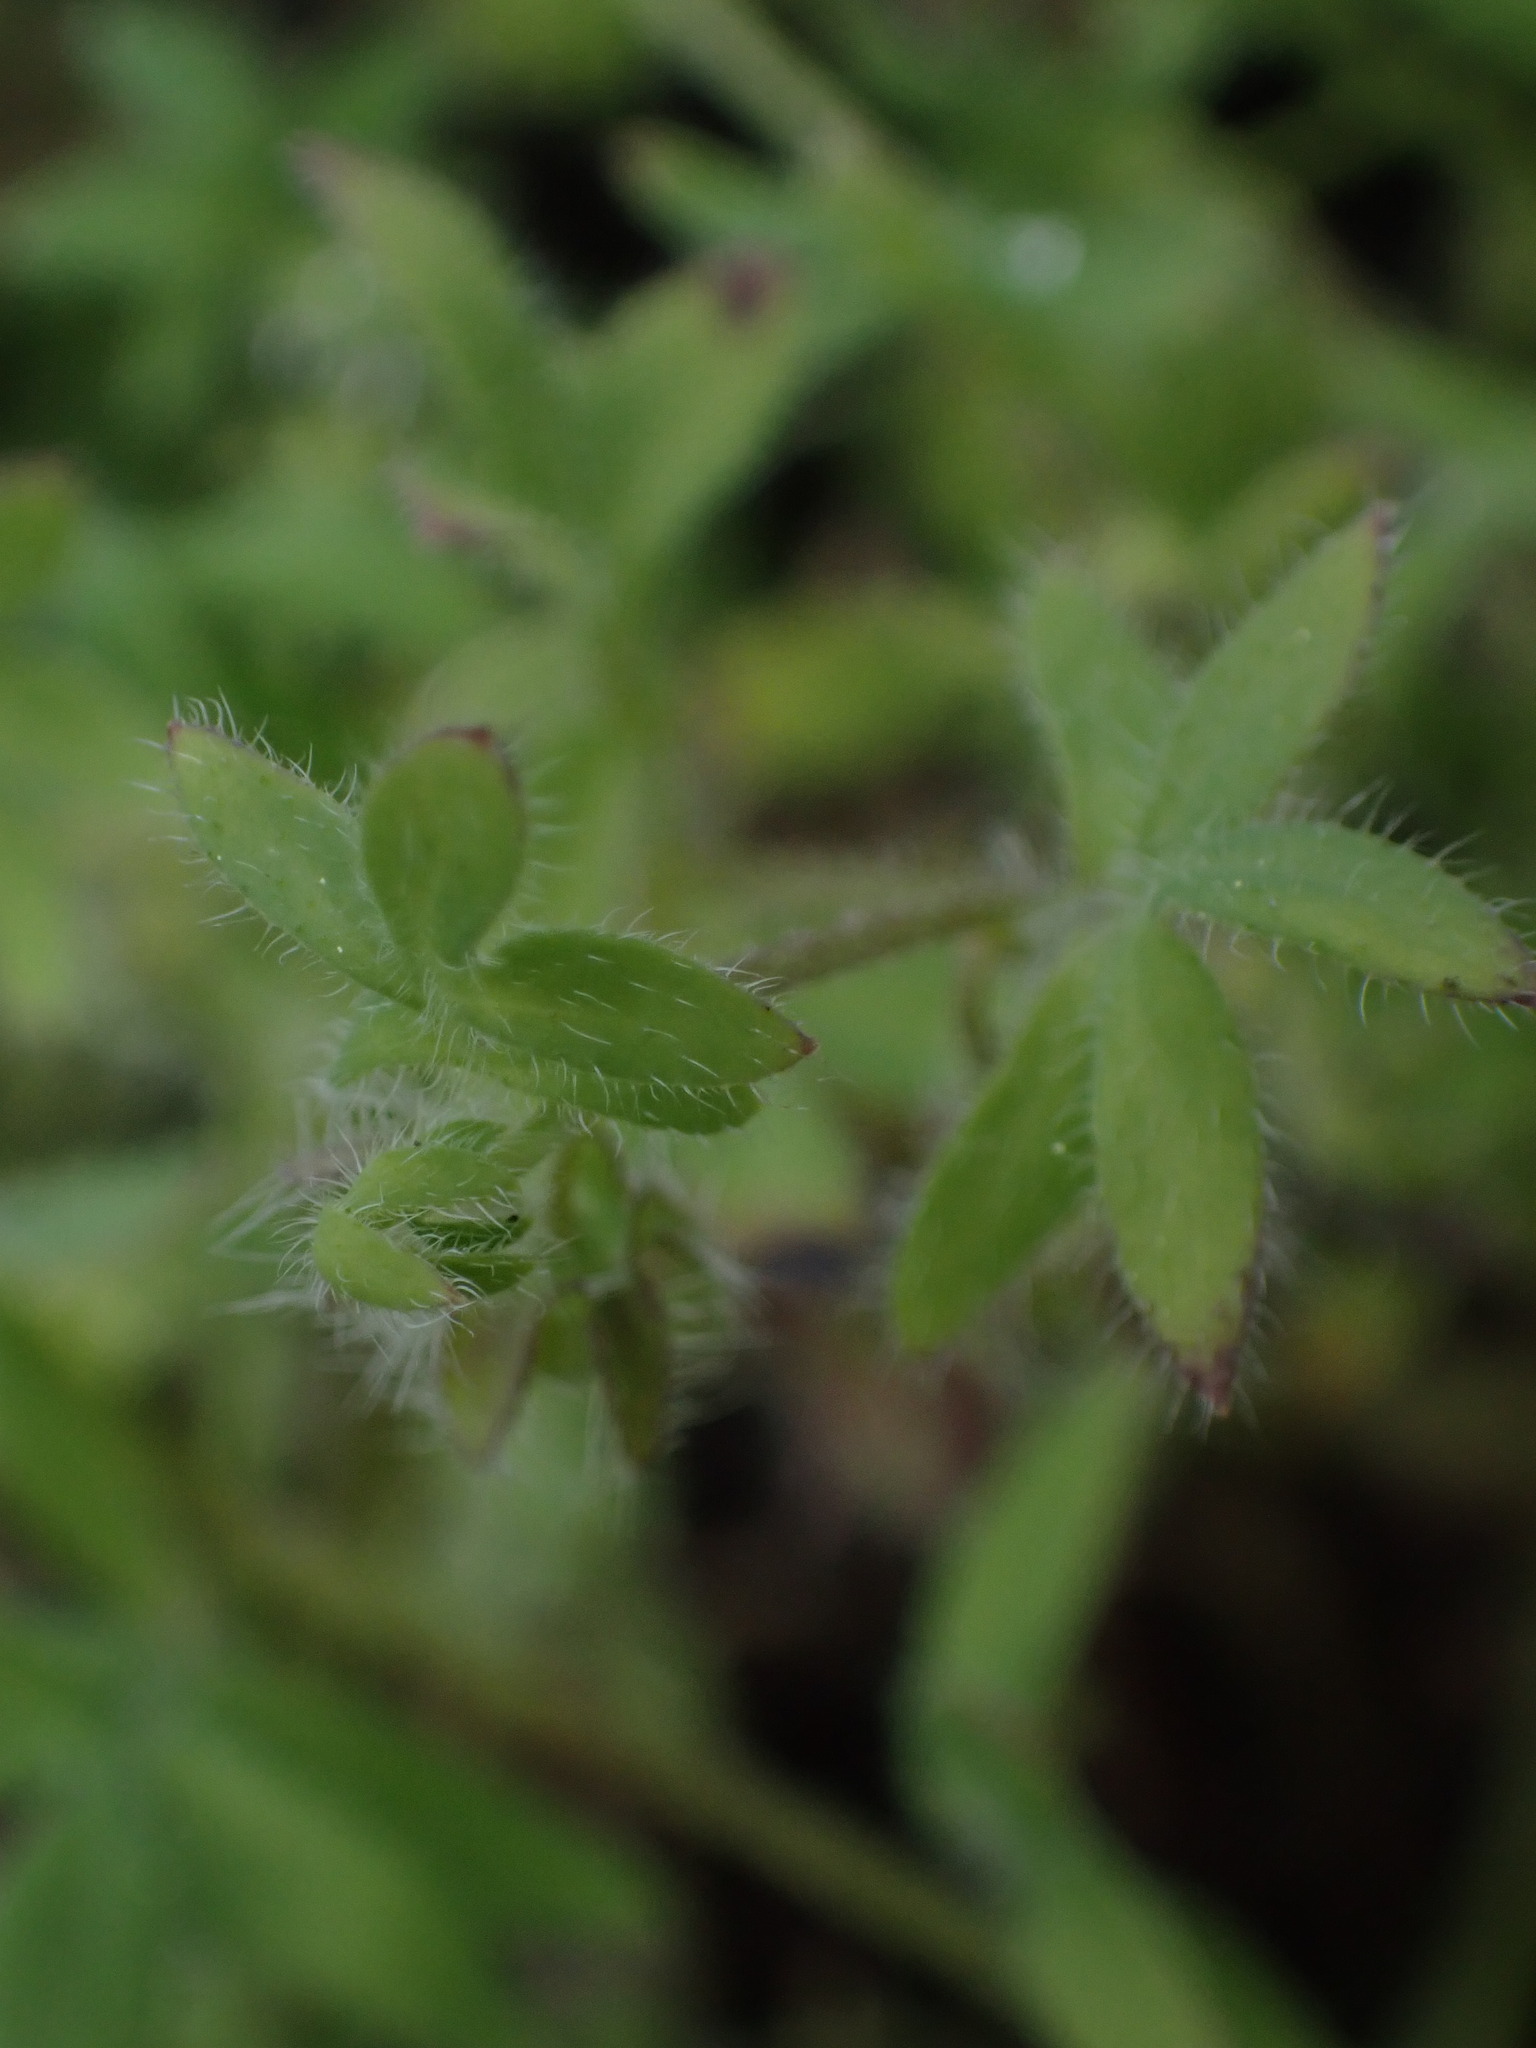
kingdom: Plantae
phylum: Tracheophyta
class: Magnoliopsida
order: Boraginales
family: Hydrophyllaceae
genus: Nemophila
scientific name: Nemophila breviflora
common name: Great basin baby-blue-eyes
